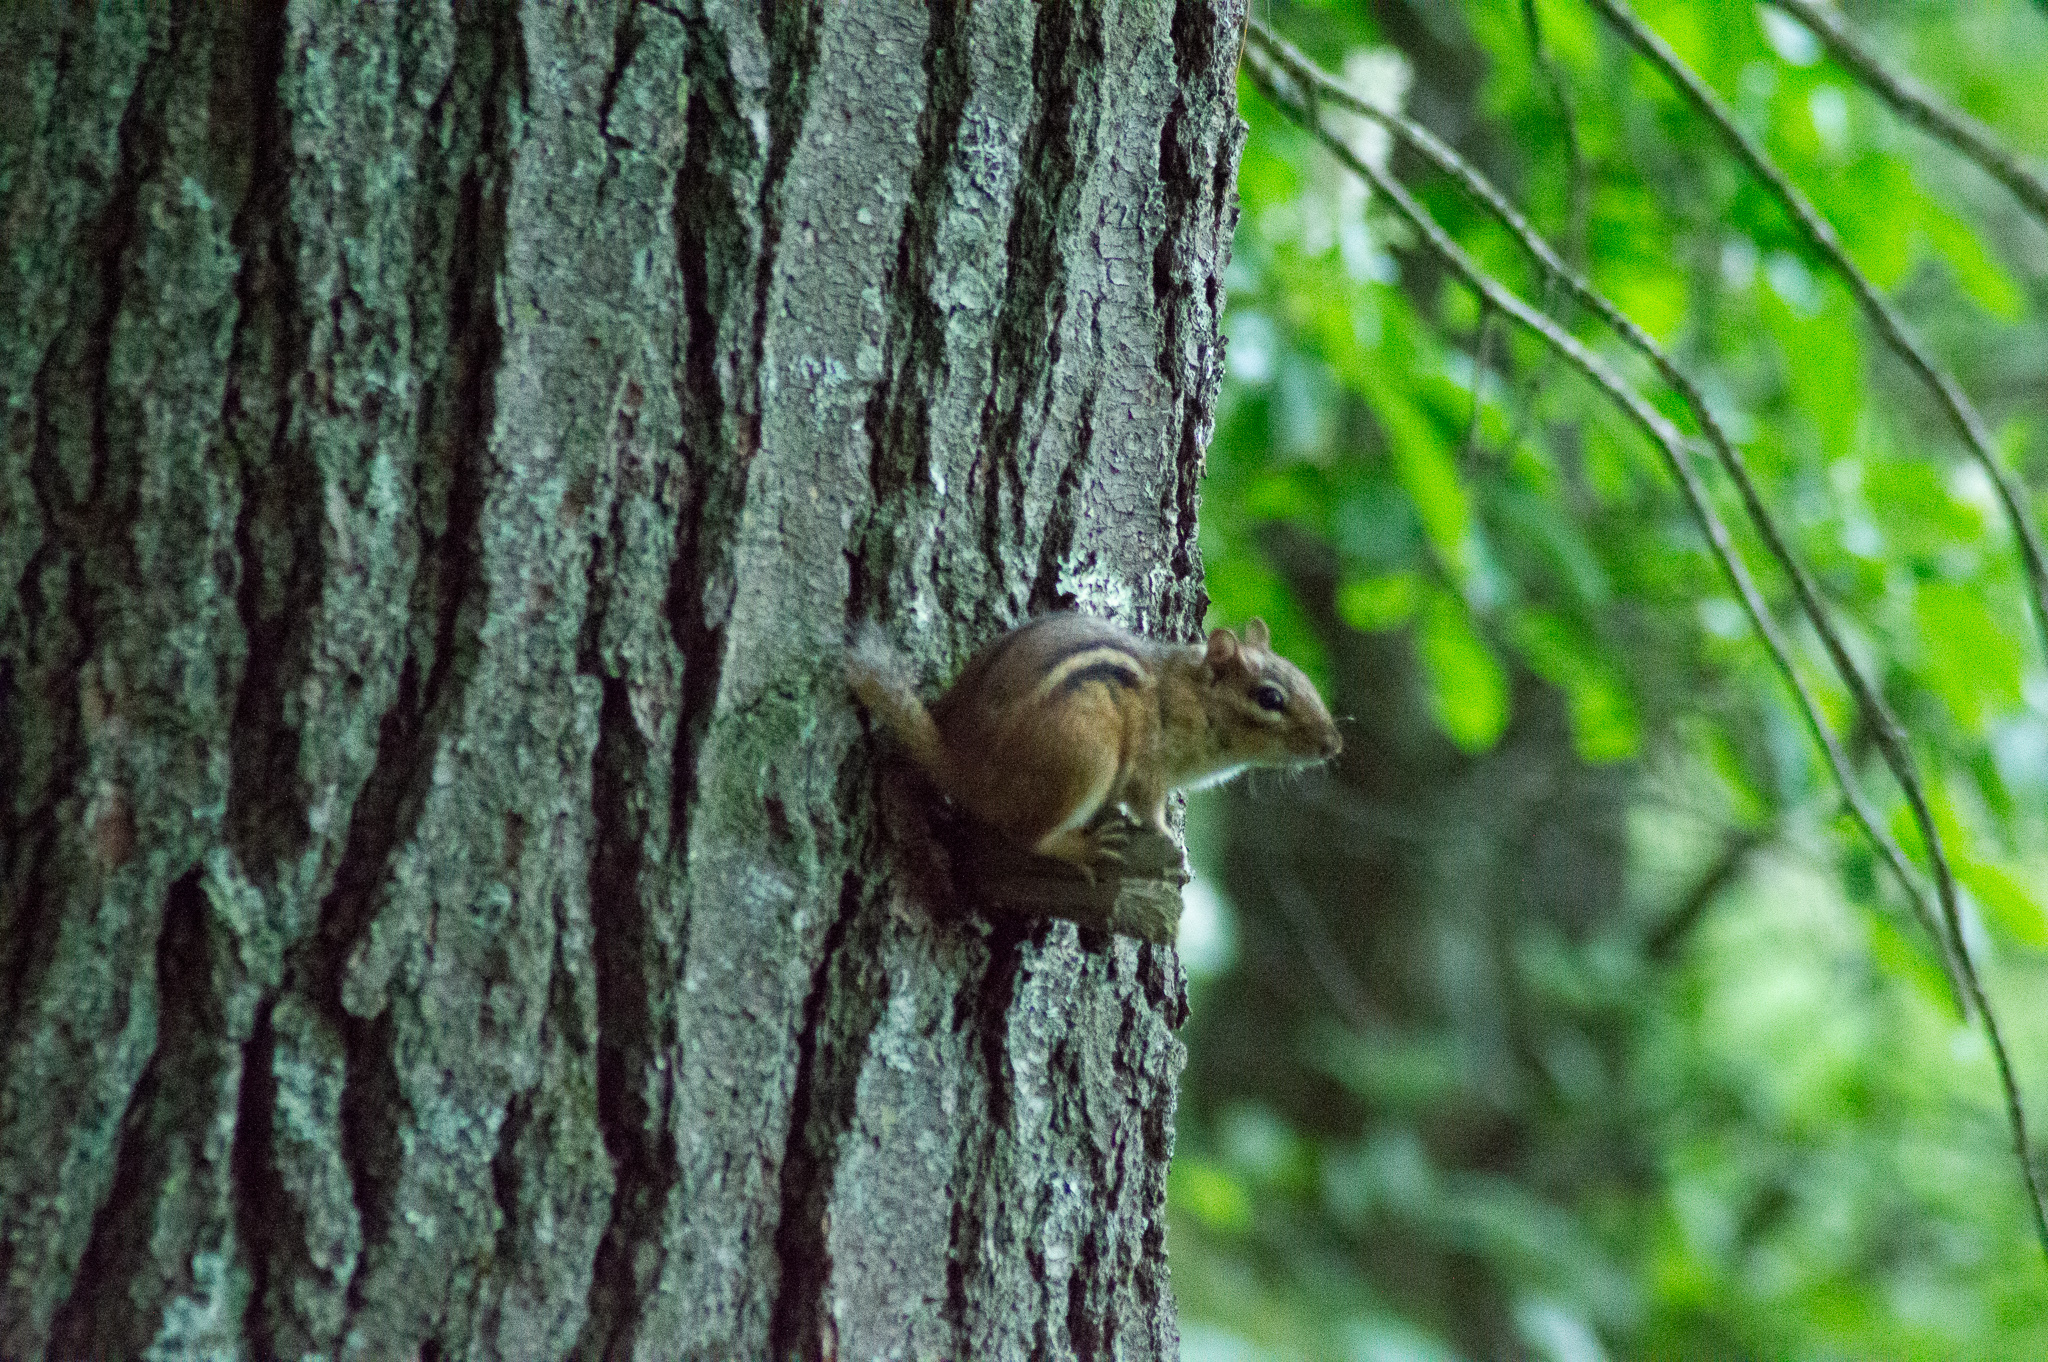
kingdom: Animalia
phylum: Chordata
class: Mammalia
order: Rodentia
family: Sciuridae
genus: Tamias
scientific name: Tamias striatus
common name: Eastern chipmunk
